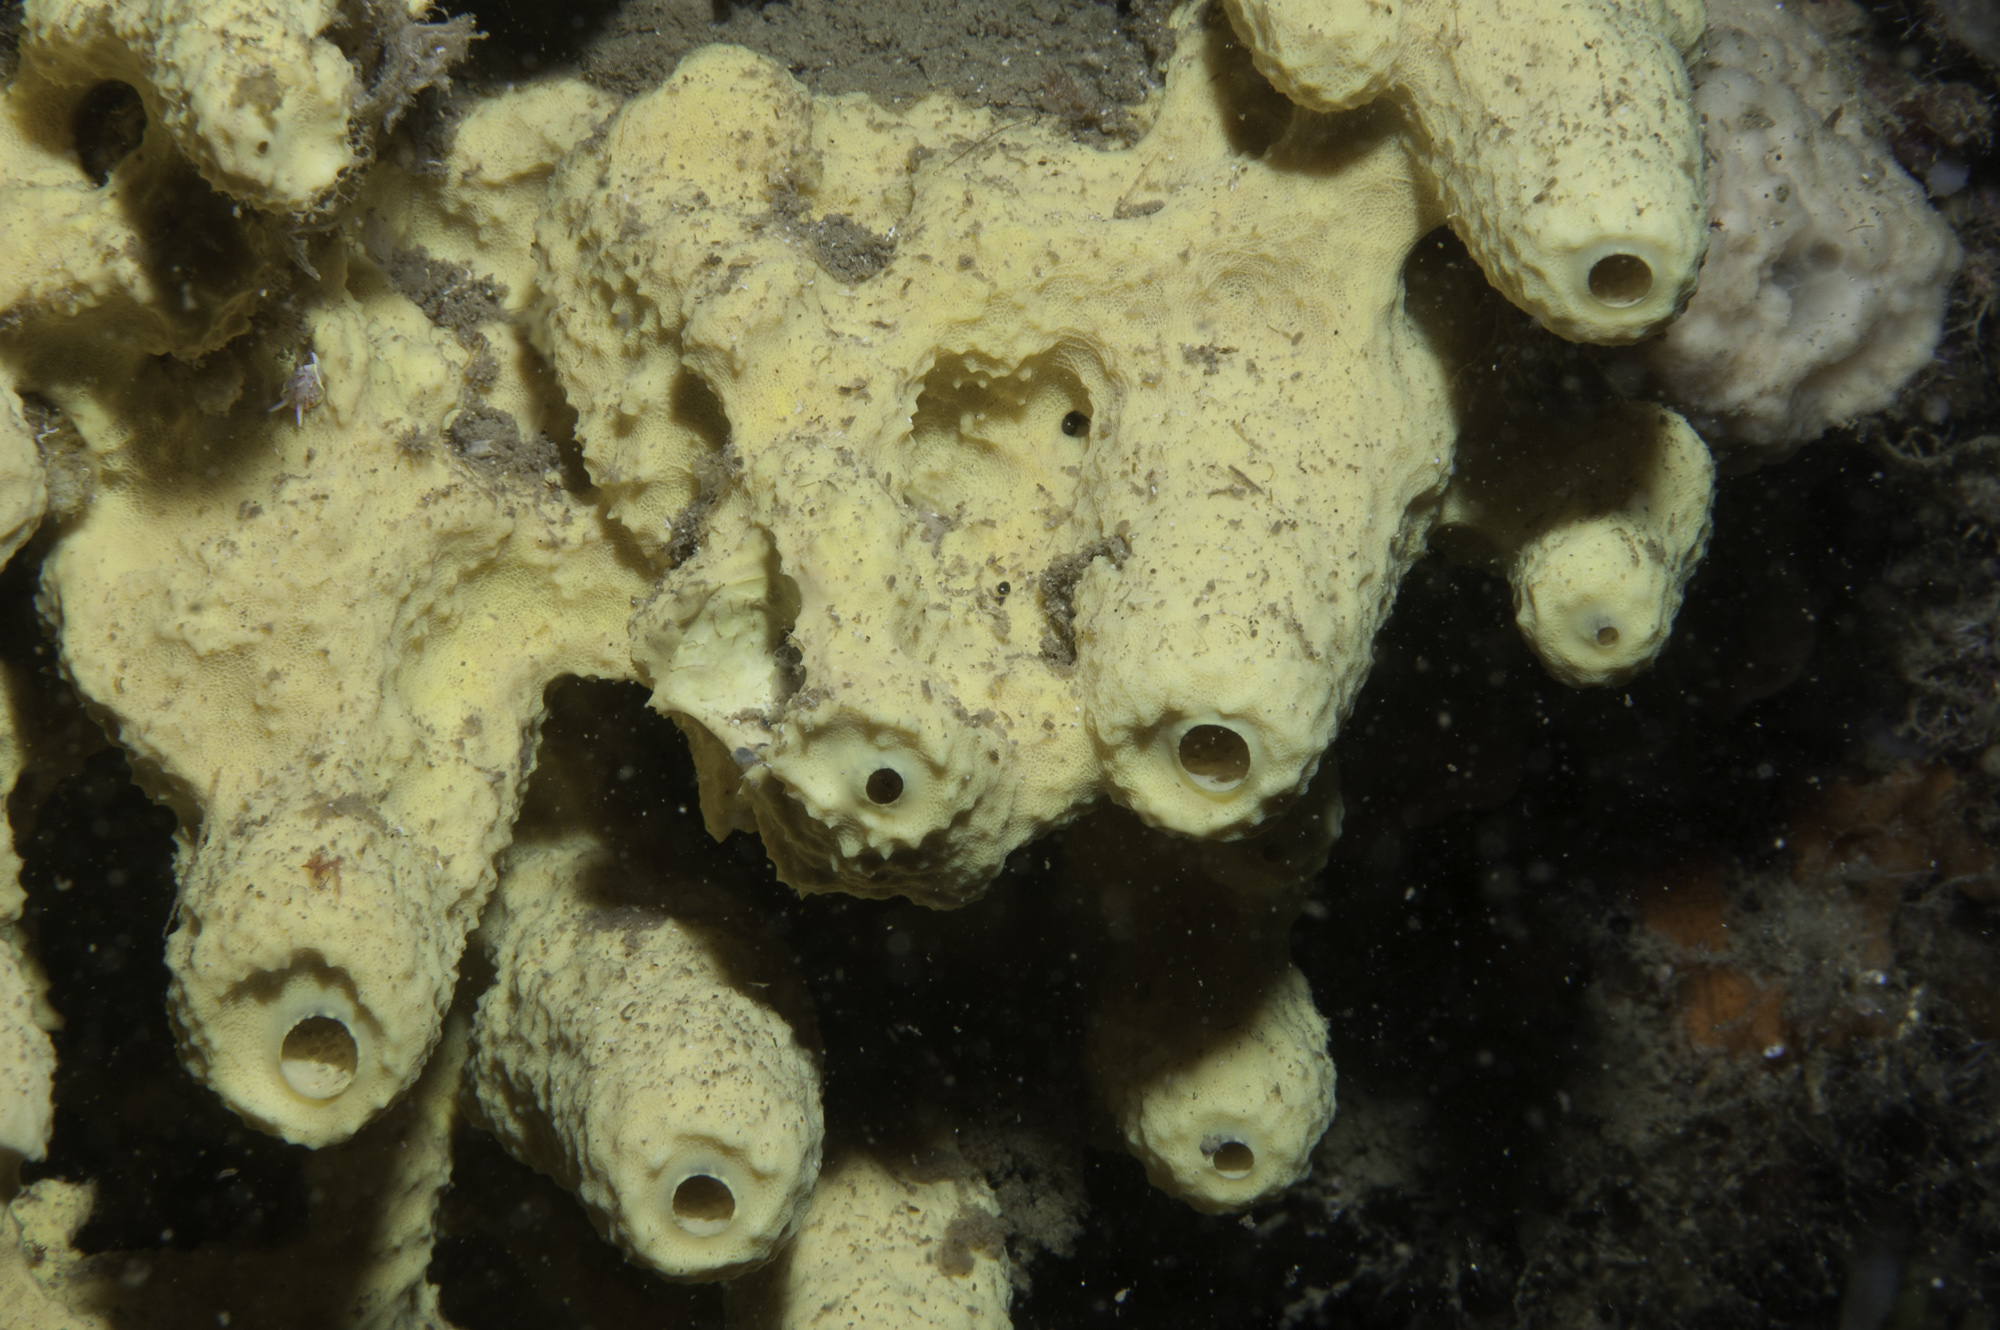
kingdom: Animalia
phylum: Porifera
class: Demospongiae
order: Verongiida
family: Aplysinidae
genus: Aplysina
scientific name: Aplysina cavernicola
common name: Yellow cave-sponge
